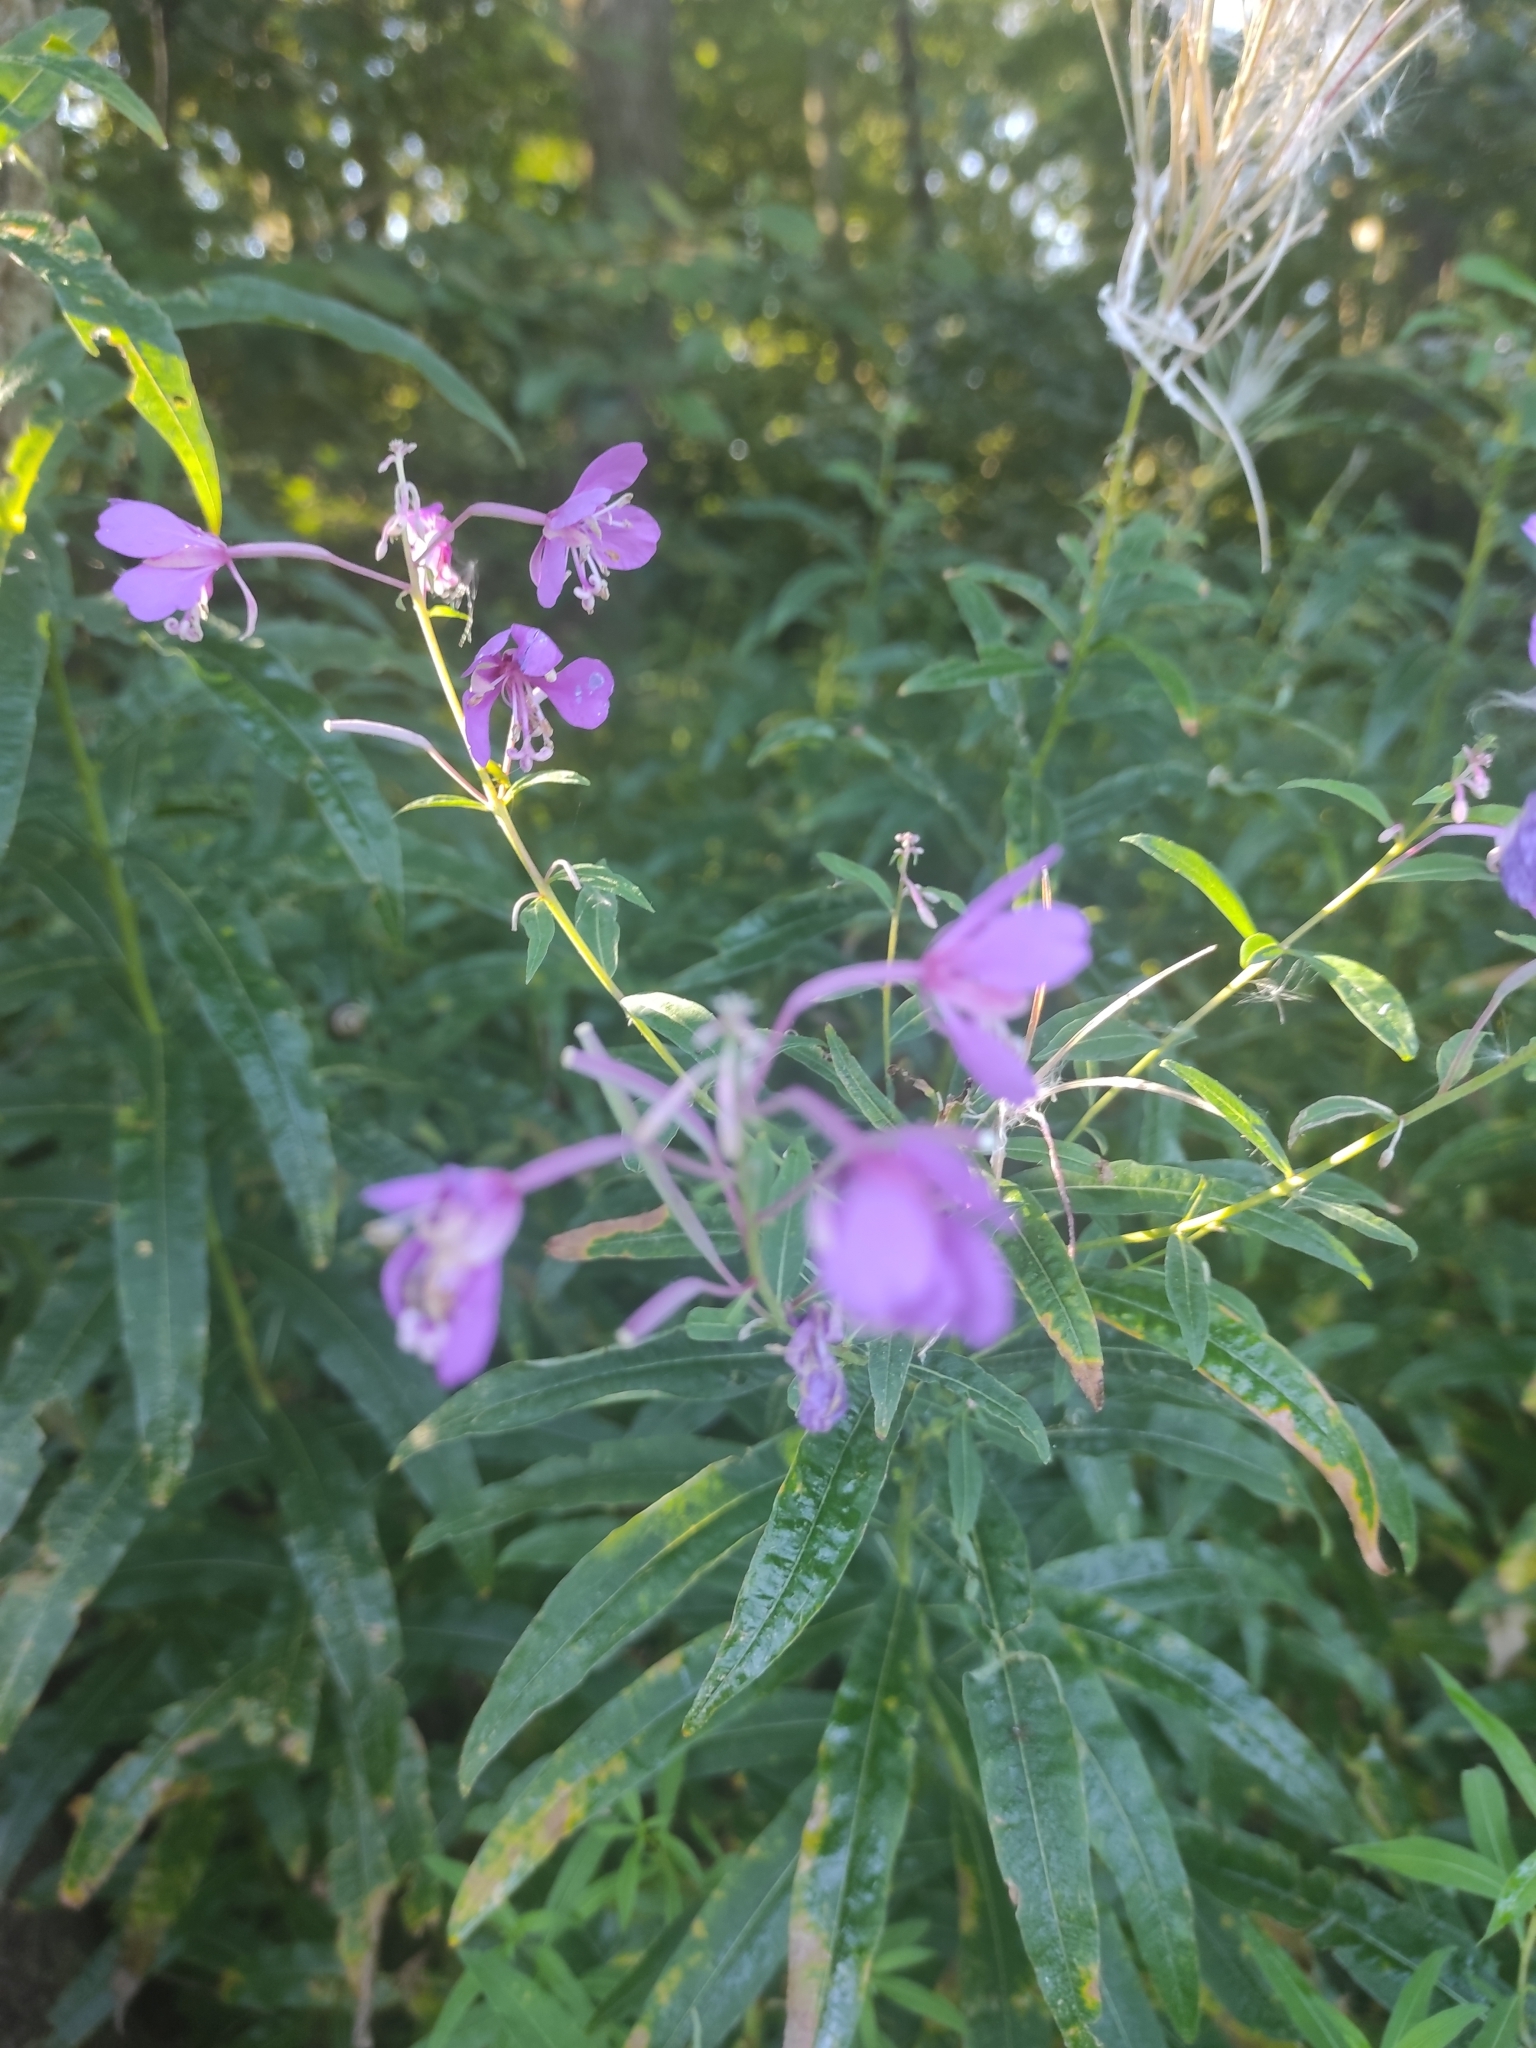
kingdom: Plantae
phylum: Tracheophyta
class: Magnoliopsida
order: Myrtales
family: Onagraceae
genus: Chamaenerion
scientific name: Chamaenerion angustifolium
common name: Fireweed
